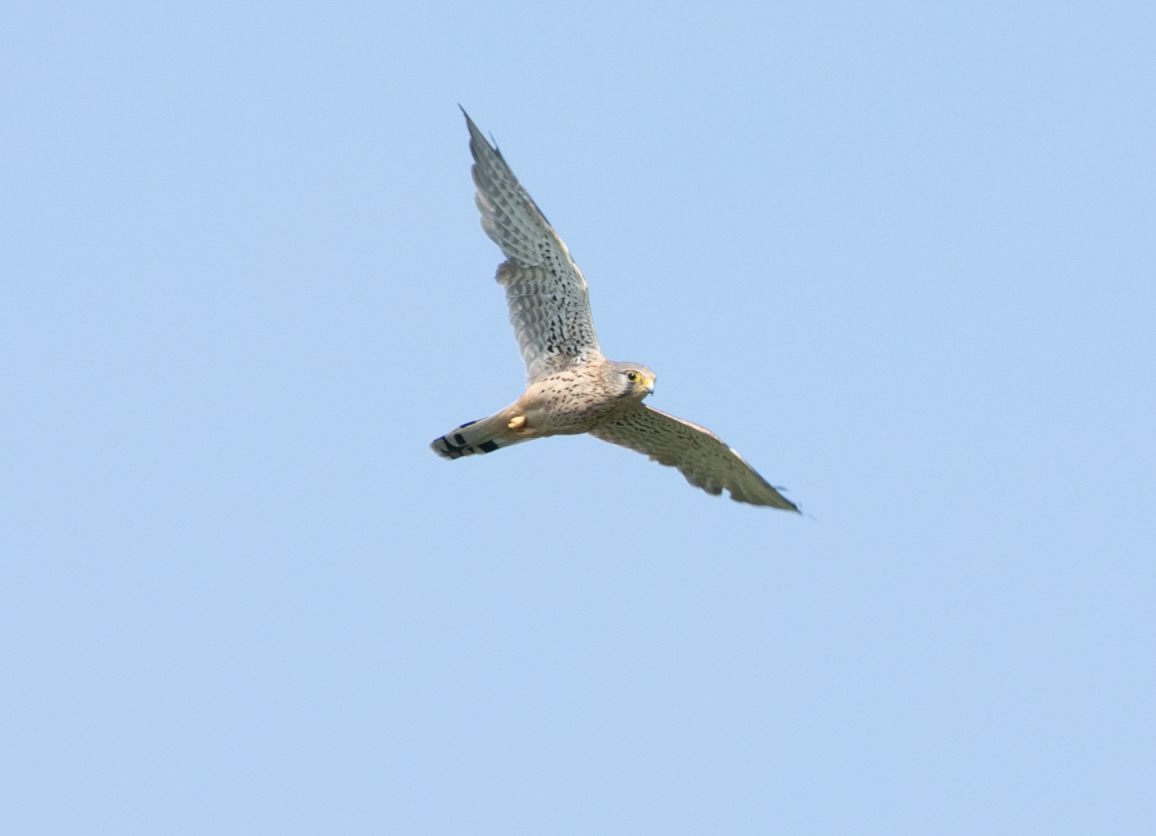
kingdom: Animalia
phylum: Chordata
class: Aves
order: Falconiformes
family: Falconidae
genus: Falco
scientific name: Falco tinnunculus
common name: Common kestrel
